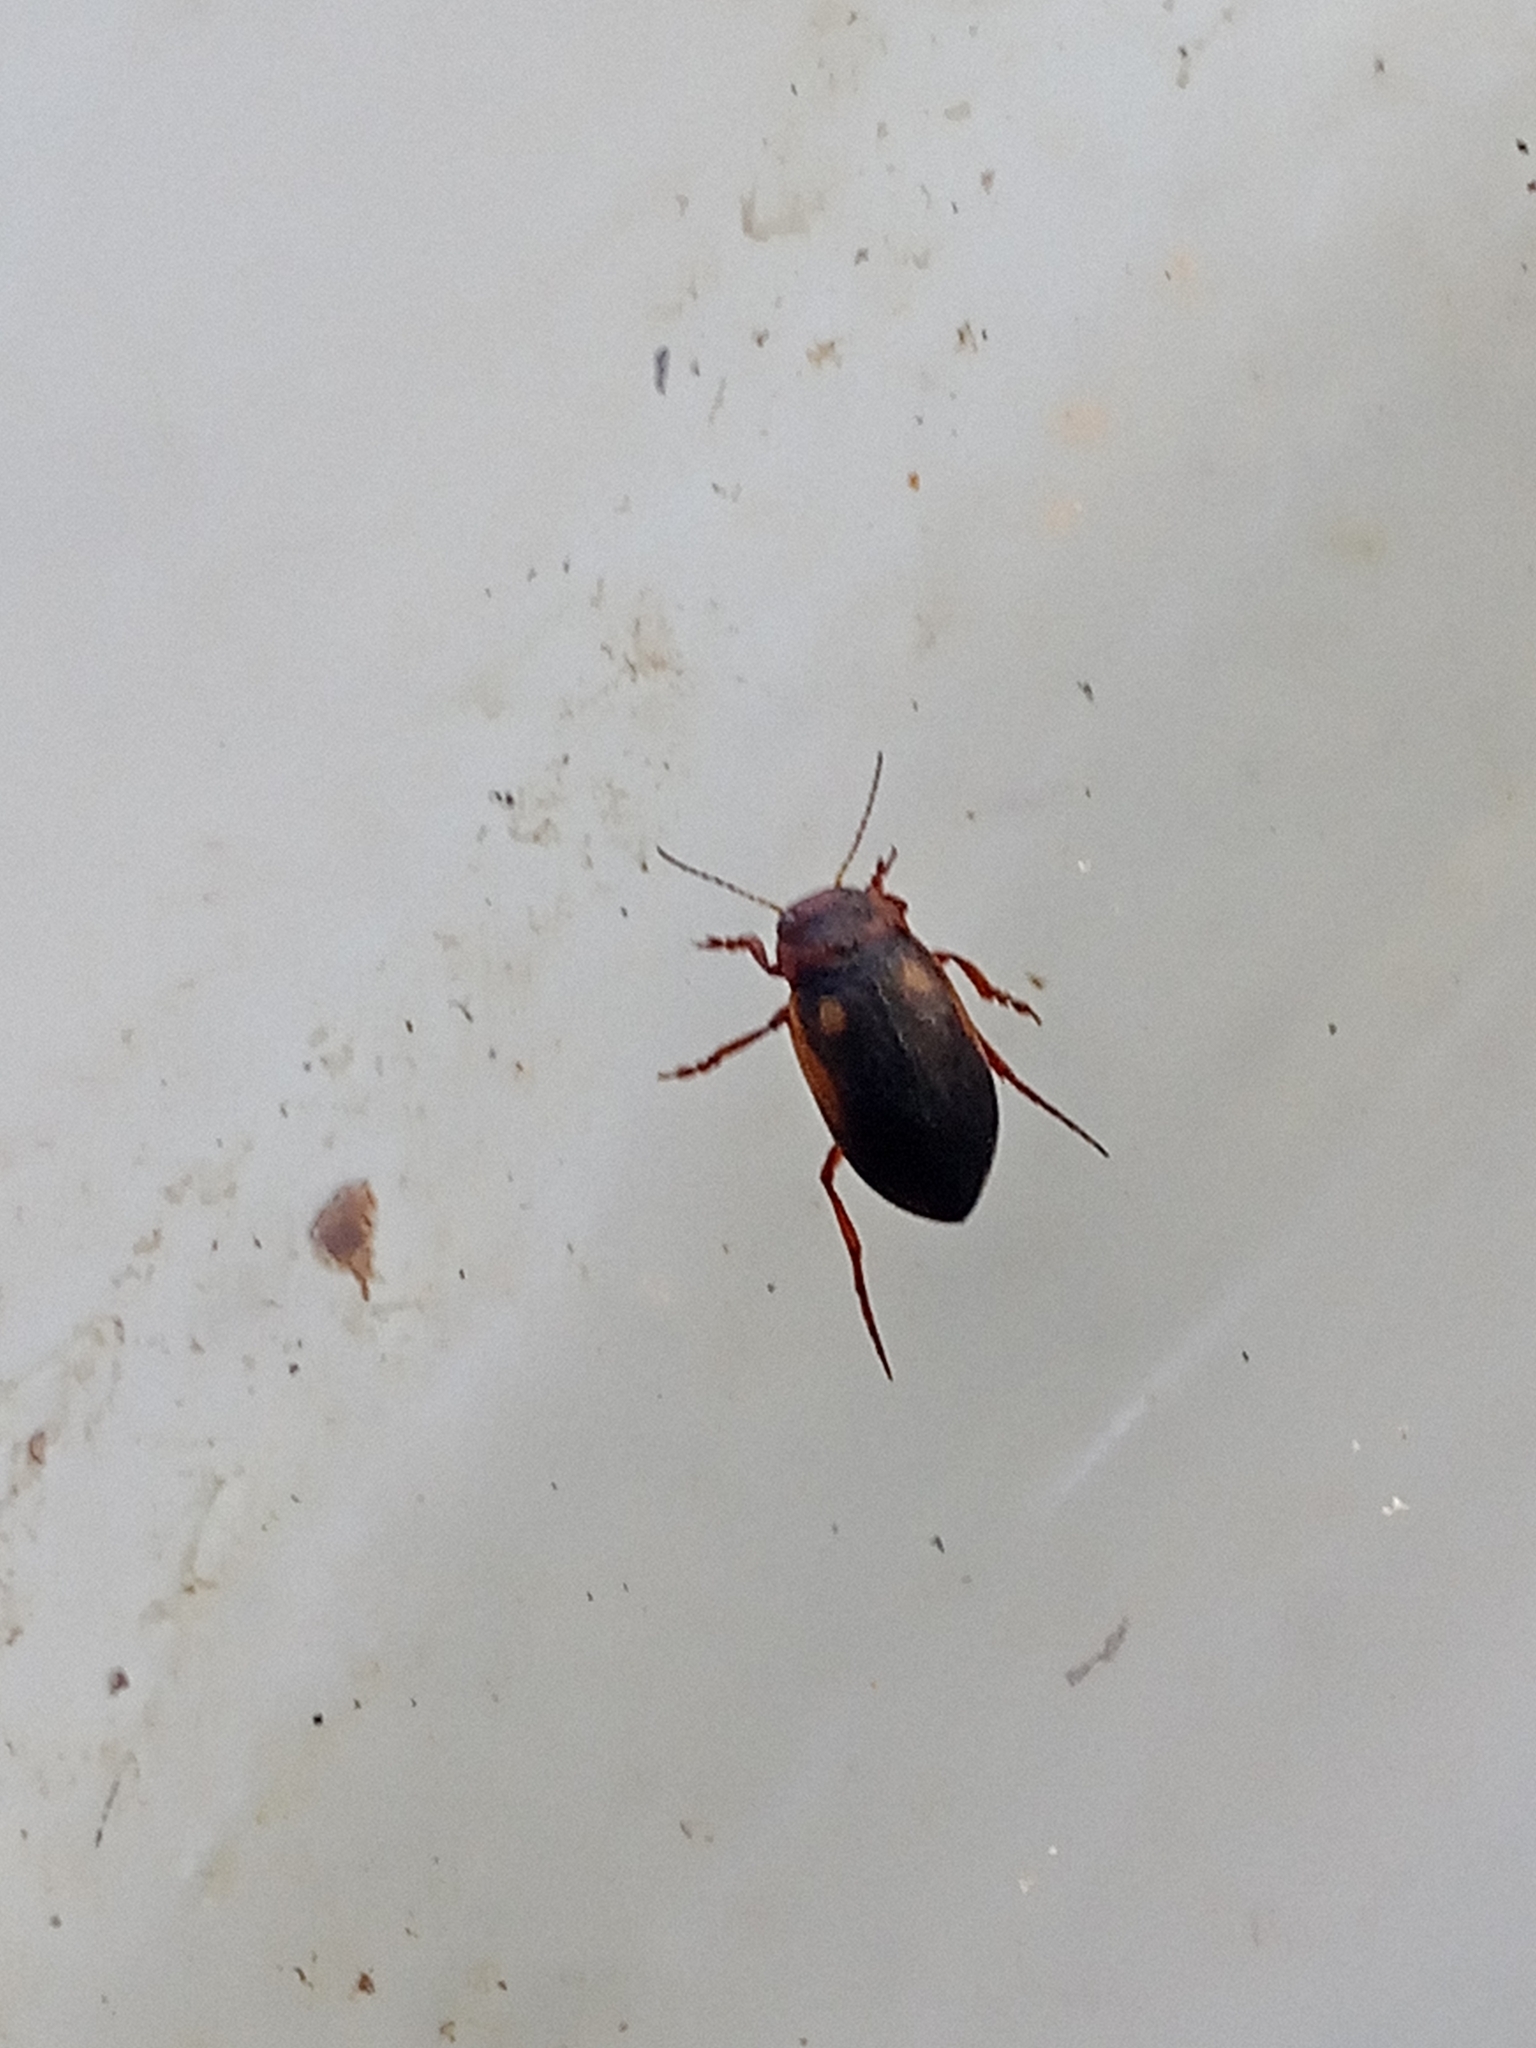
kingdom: Animalia
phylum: Arthropoda
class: Insecta
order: Coleoptera
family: Dytiscidae
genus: Hydroporus
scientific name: Hydroporus dorsalis
